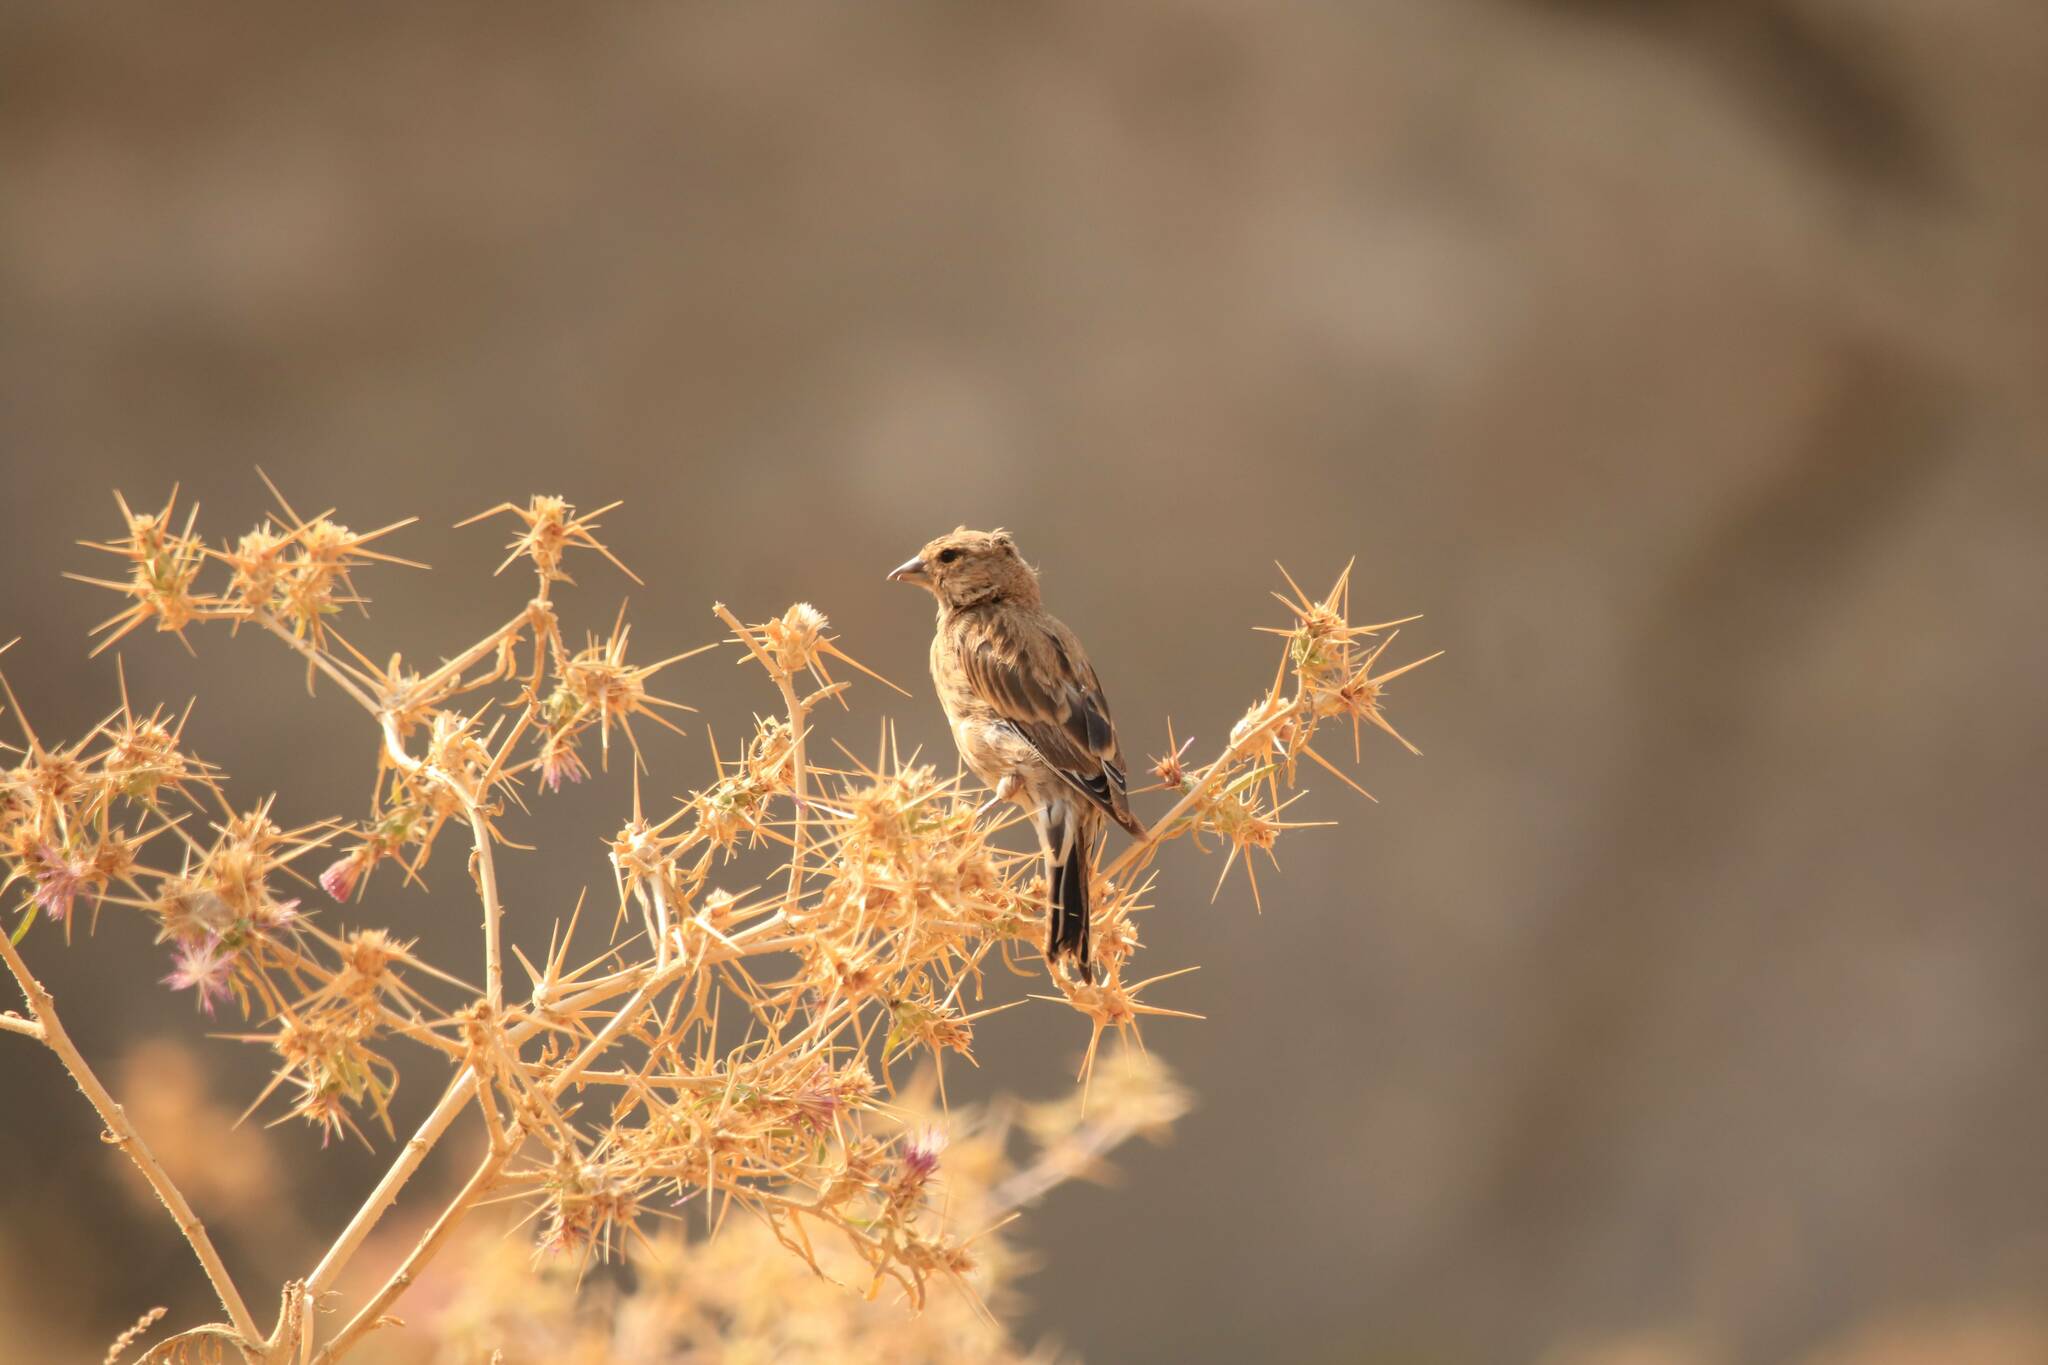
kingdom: Animalia
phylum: Chordata
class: Aves
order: Passeriformes
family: Fringillidae
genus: Linaria
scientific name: Linaria cannabina
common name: Common linnet
